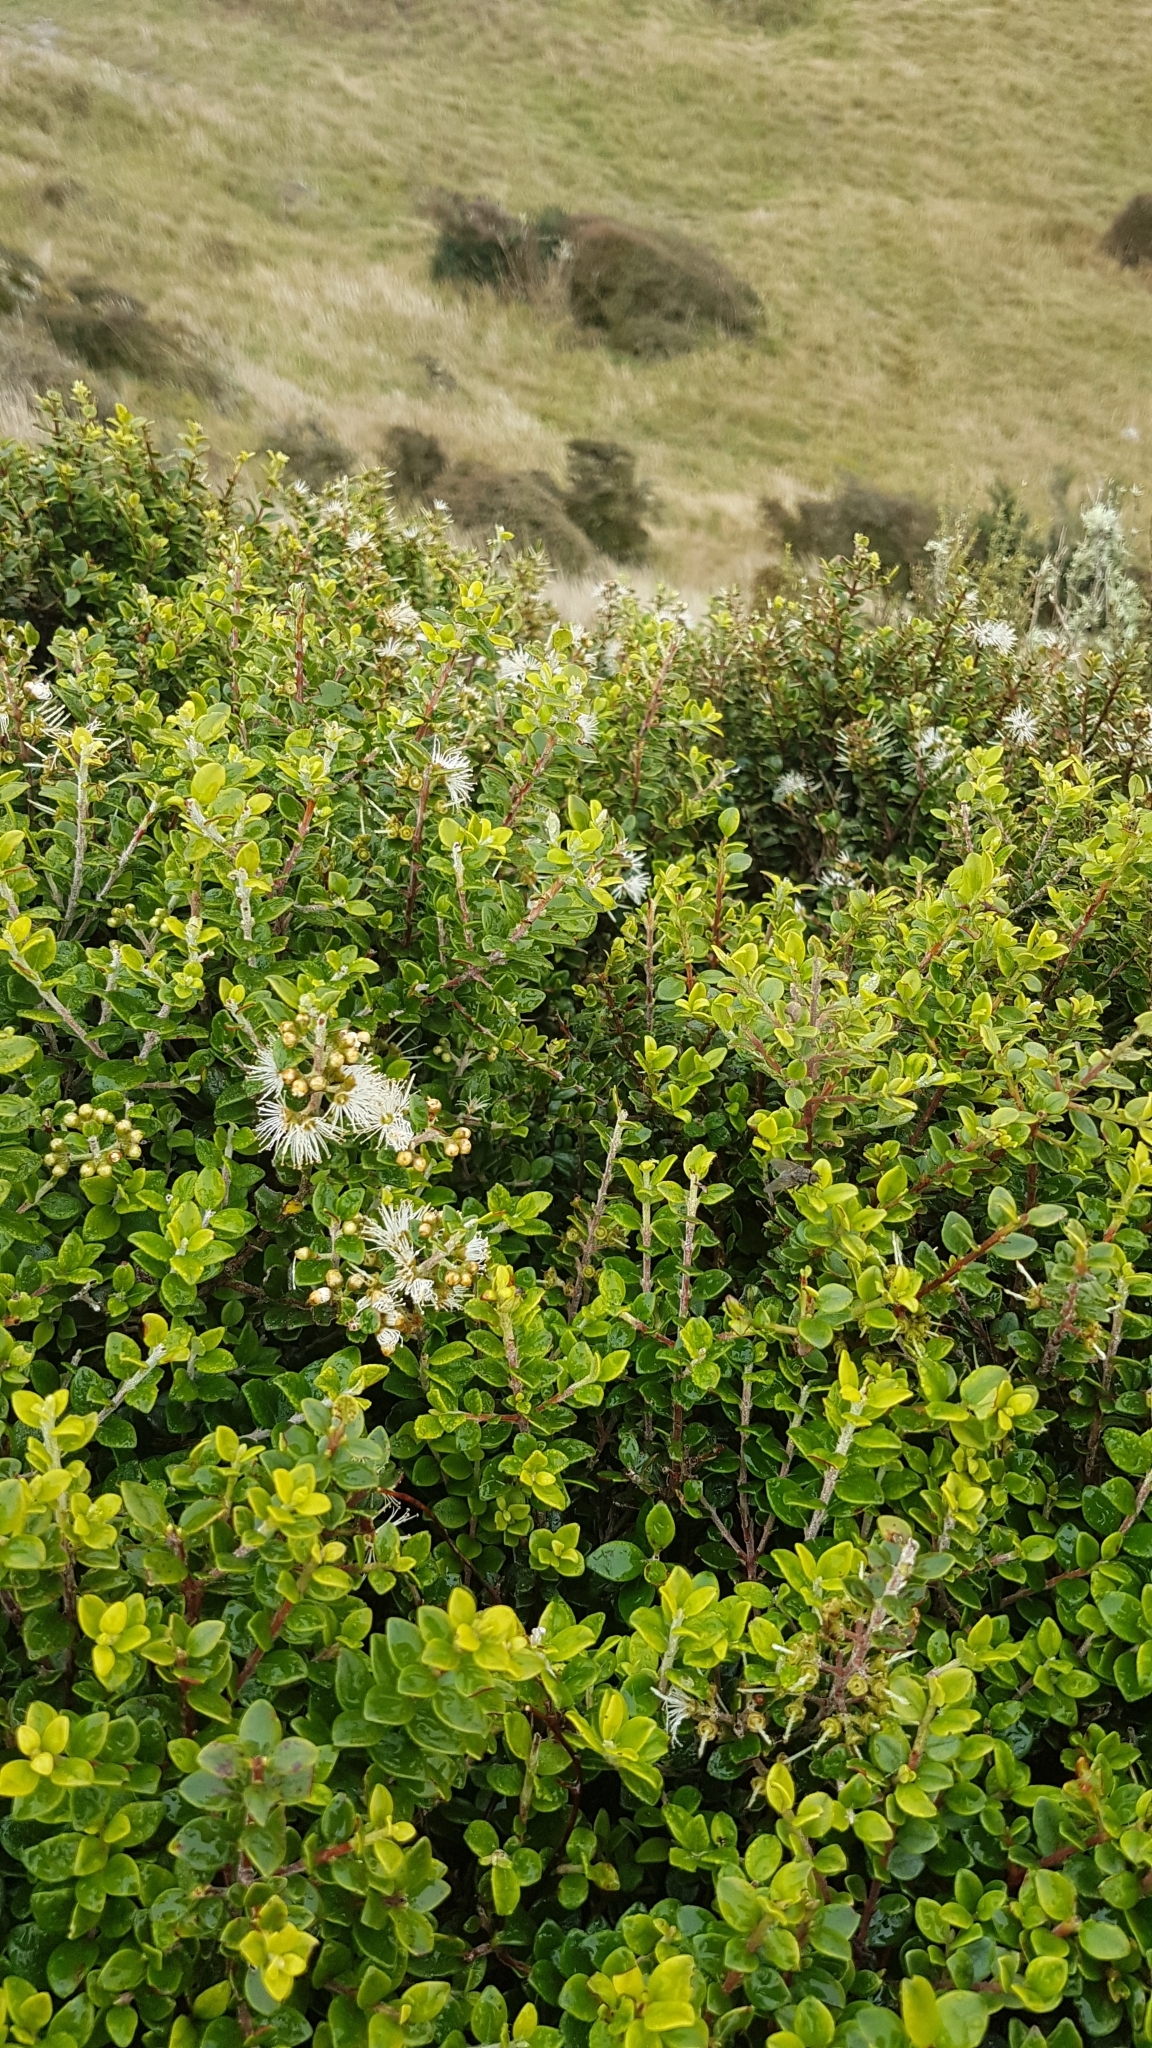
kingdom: Plantae
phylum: Tracheophyta
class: Magnoliopsida
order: Myrtales
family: Myrtaceae
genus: Metrosideros
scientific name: Metrosideros perforata
